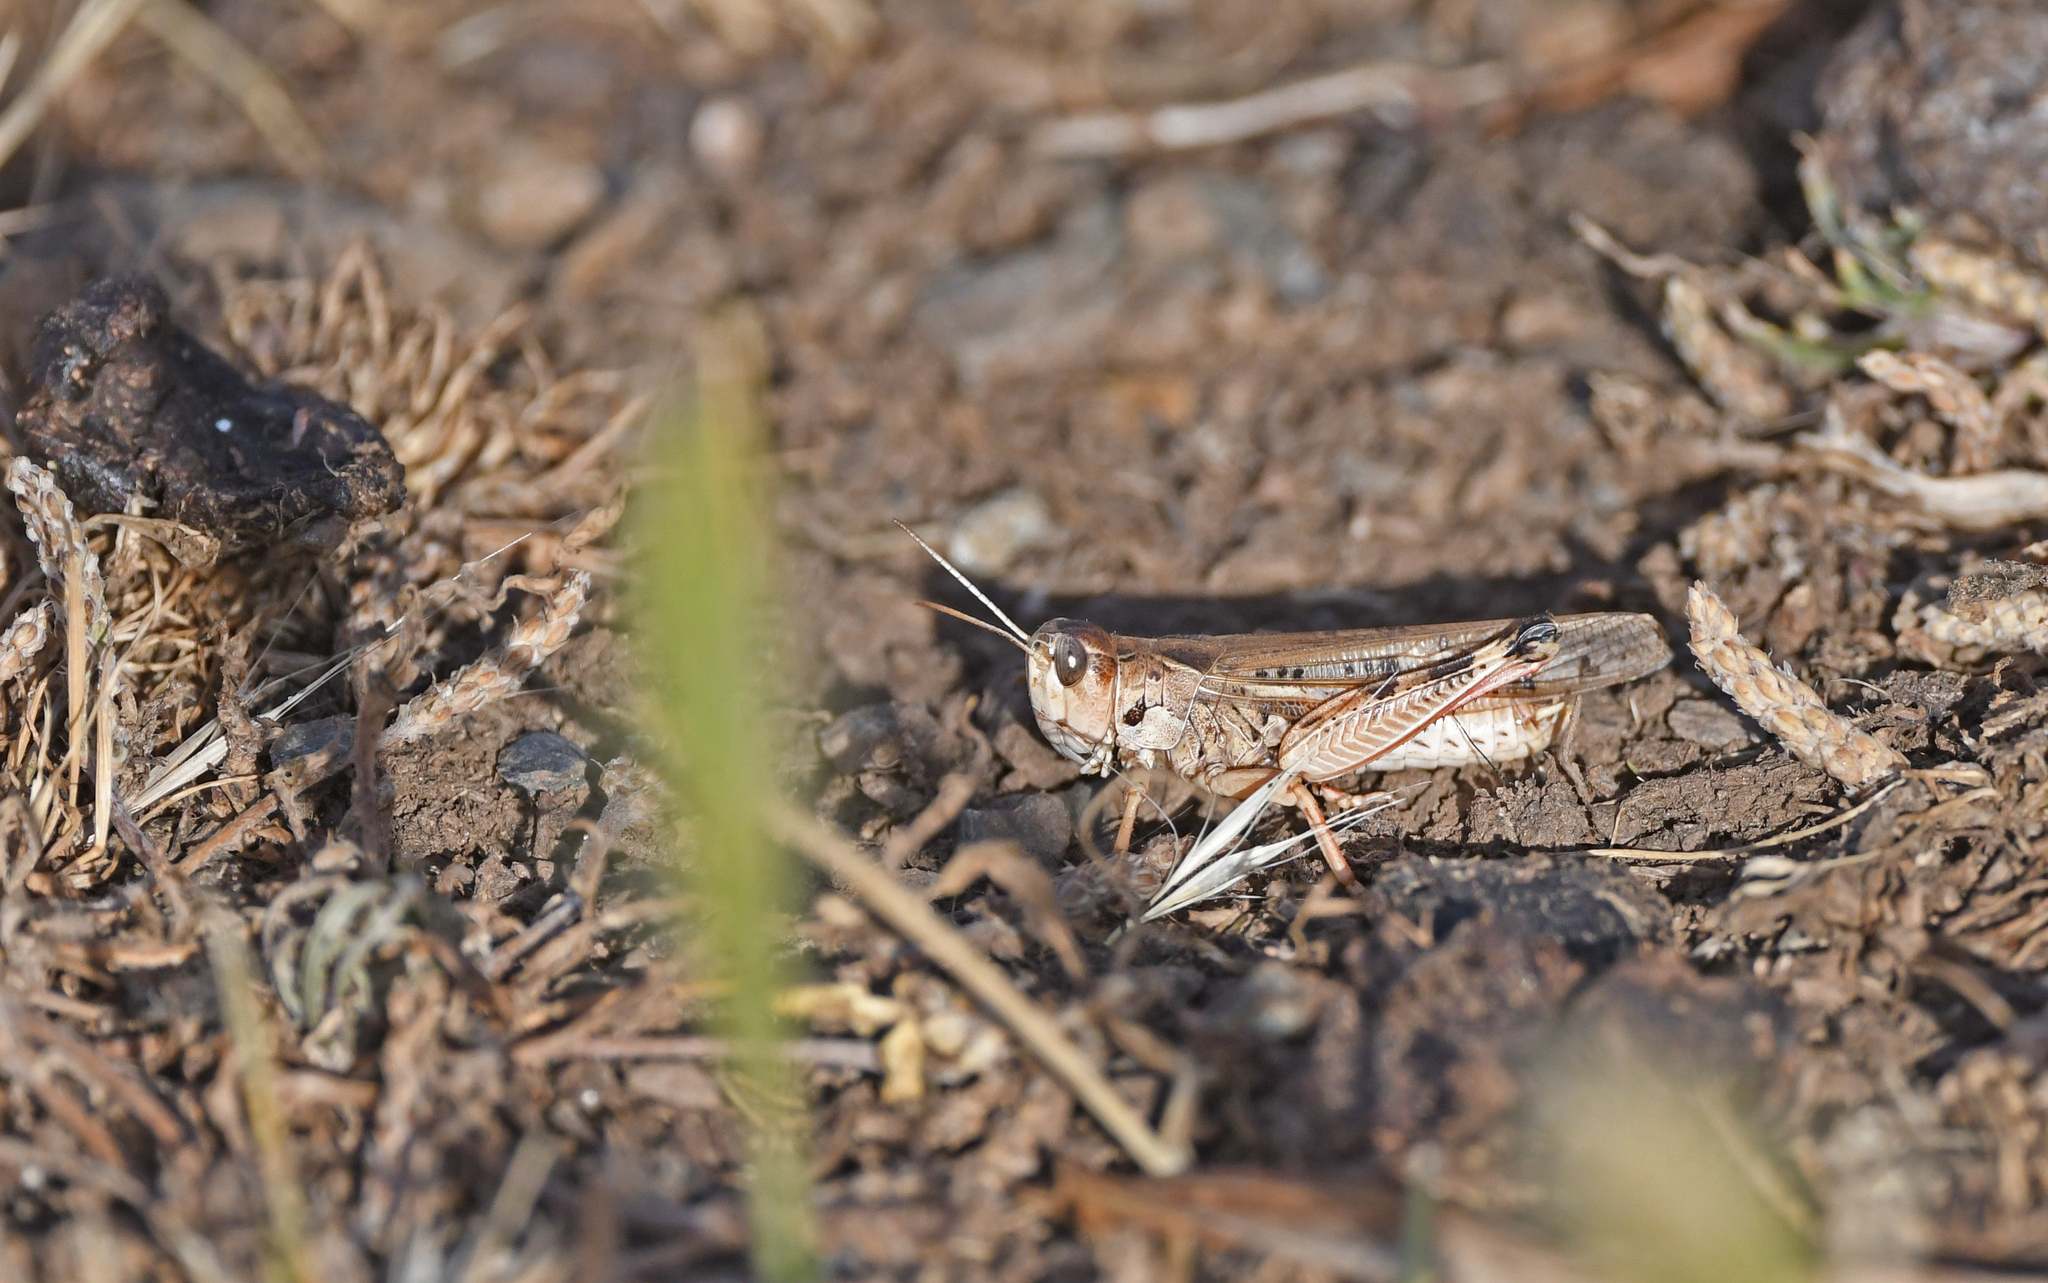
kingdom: Animalia
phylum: Arthropoda
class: Insecta
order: Orthoptera
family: Acrididae
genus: Dociostaurus
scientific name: Dociostaurus maroccanus
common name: Moroccan locust
